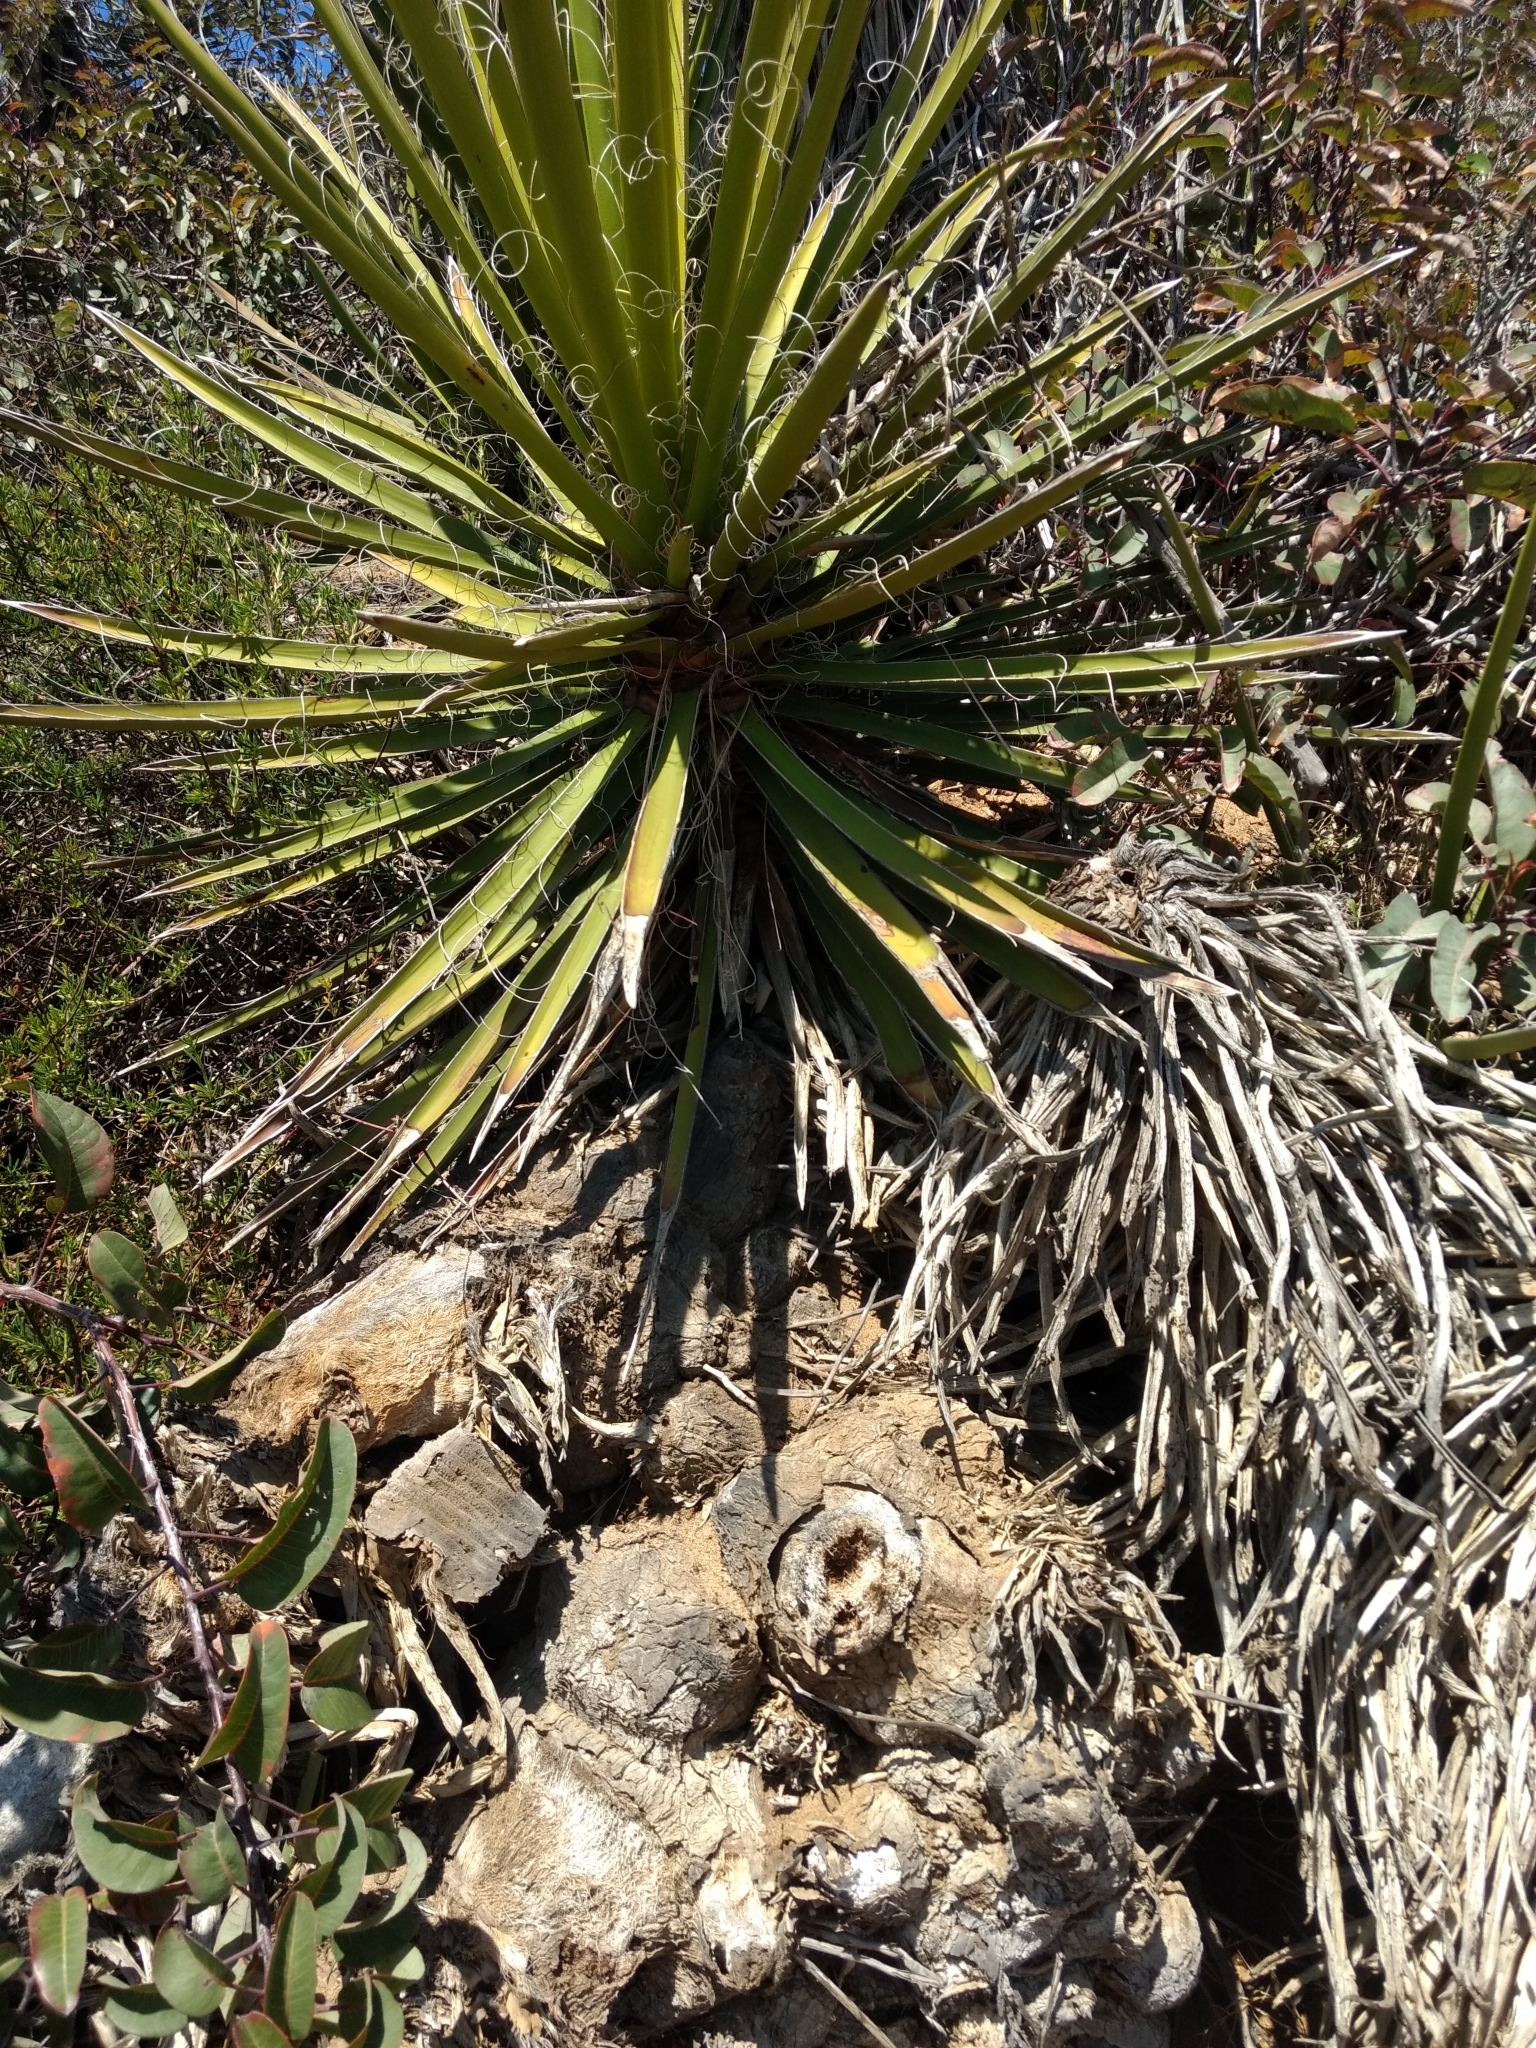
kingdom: Plantae
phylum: Tracheophyta
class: Liliopsida
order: Asparagales
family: Asparagaceae
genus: Yucca
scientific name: Yucca schidigera
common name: Mojave yucca
